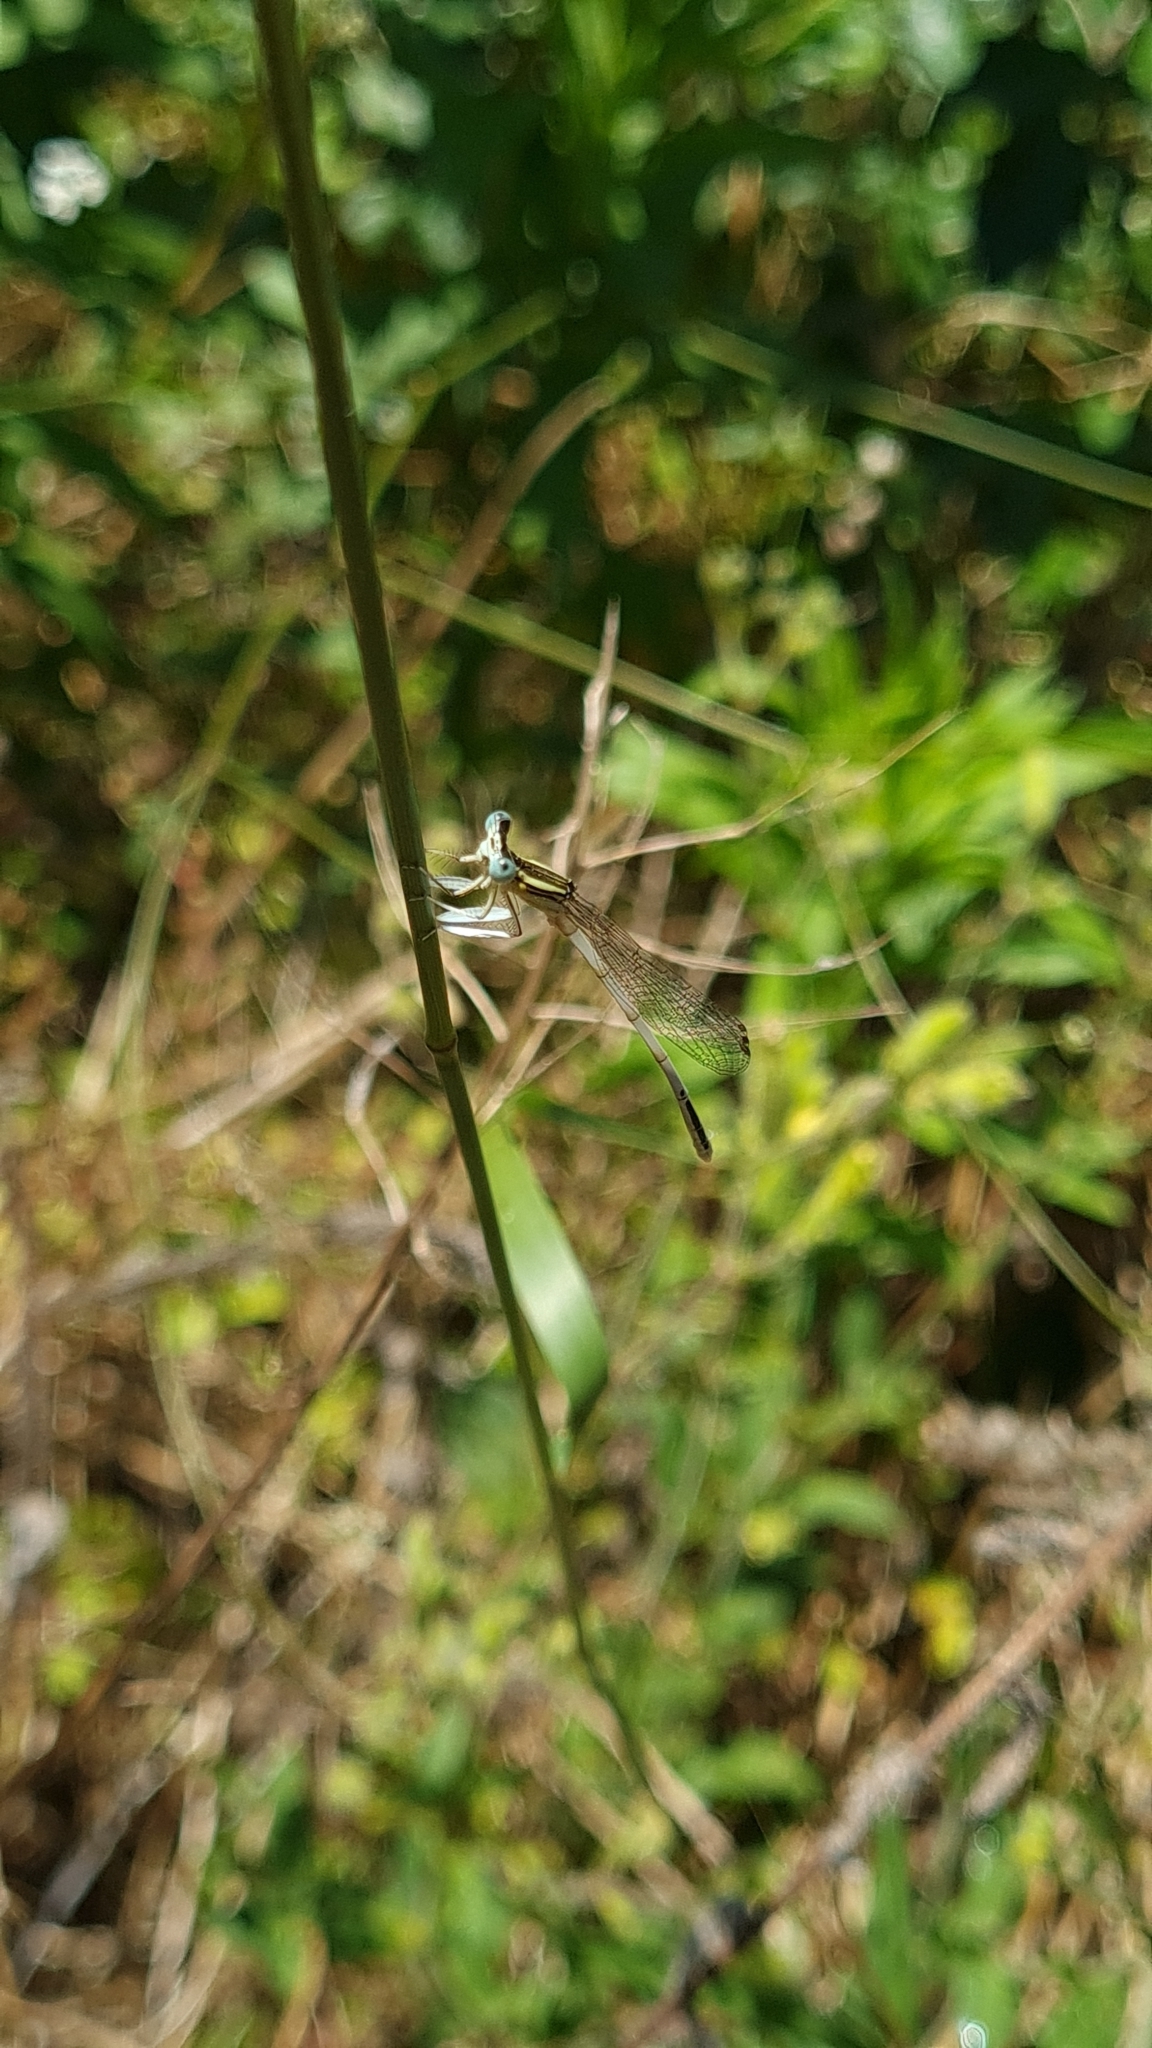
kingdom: Animalia
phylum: Arthropoda
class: Insecta
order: Odonata
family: Platycnemididae
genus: Platycnemis
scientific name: Platycnemis latipes
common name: White featherleg
